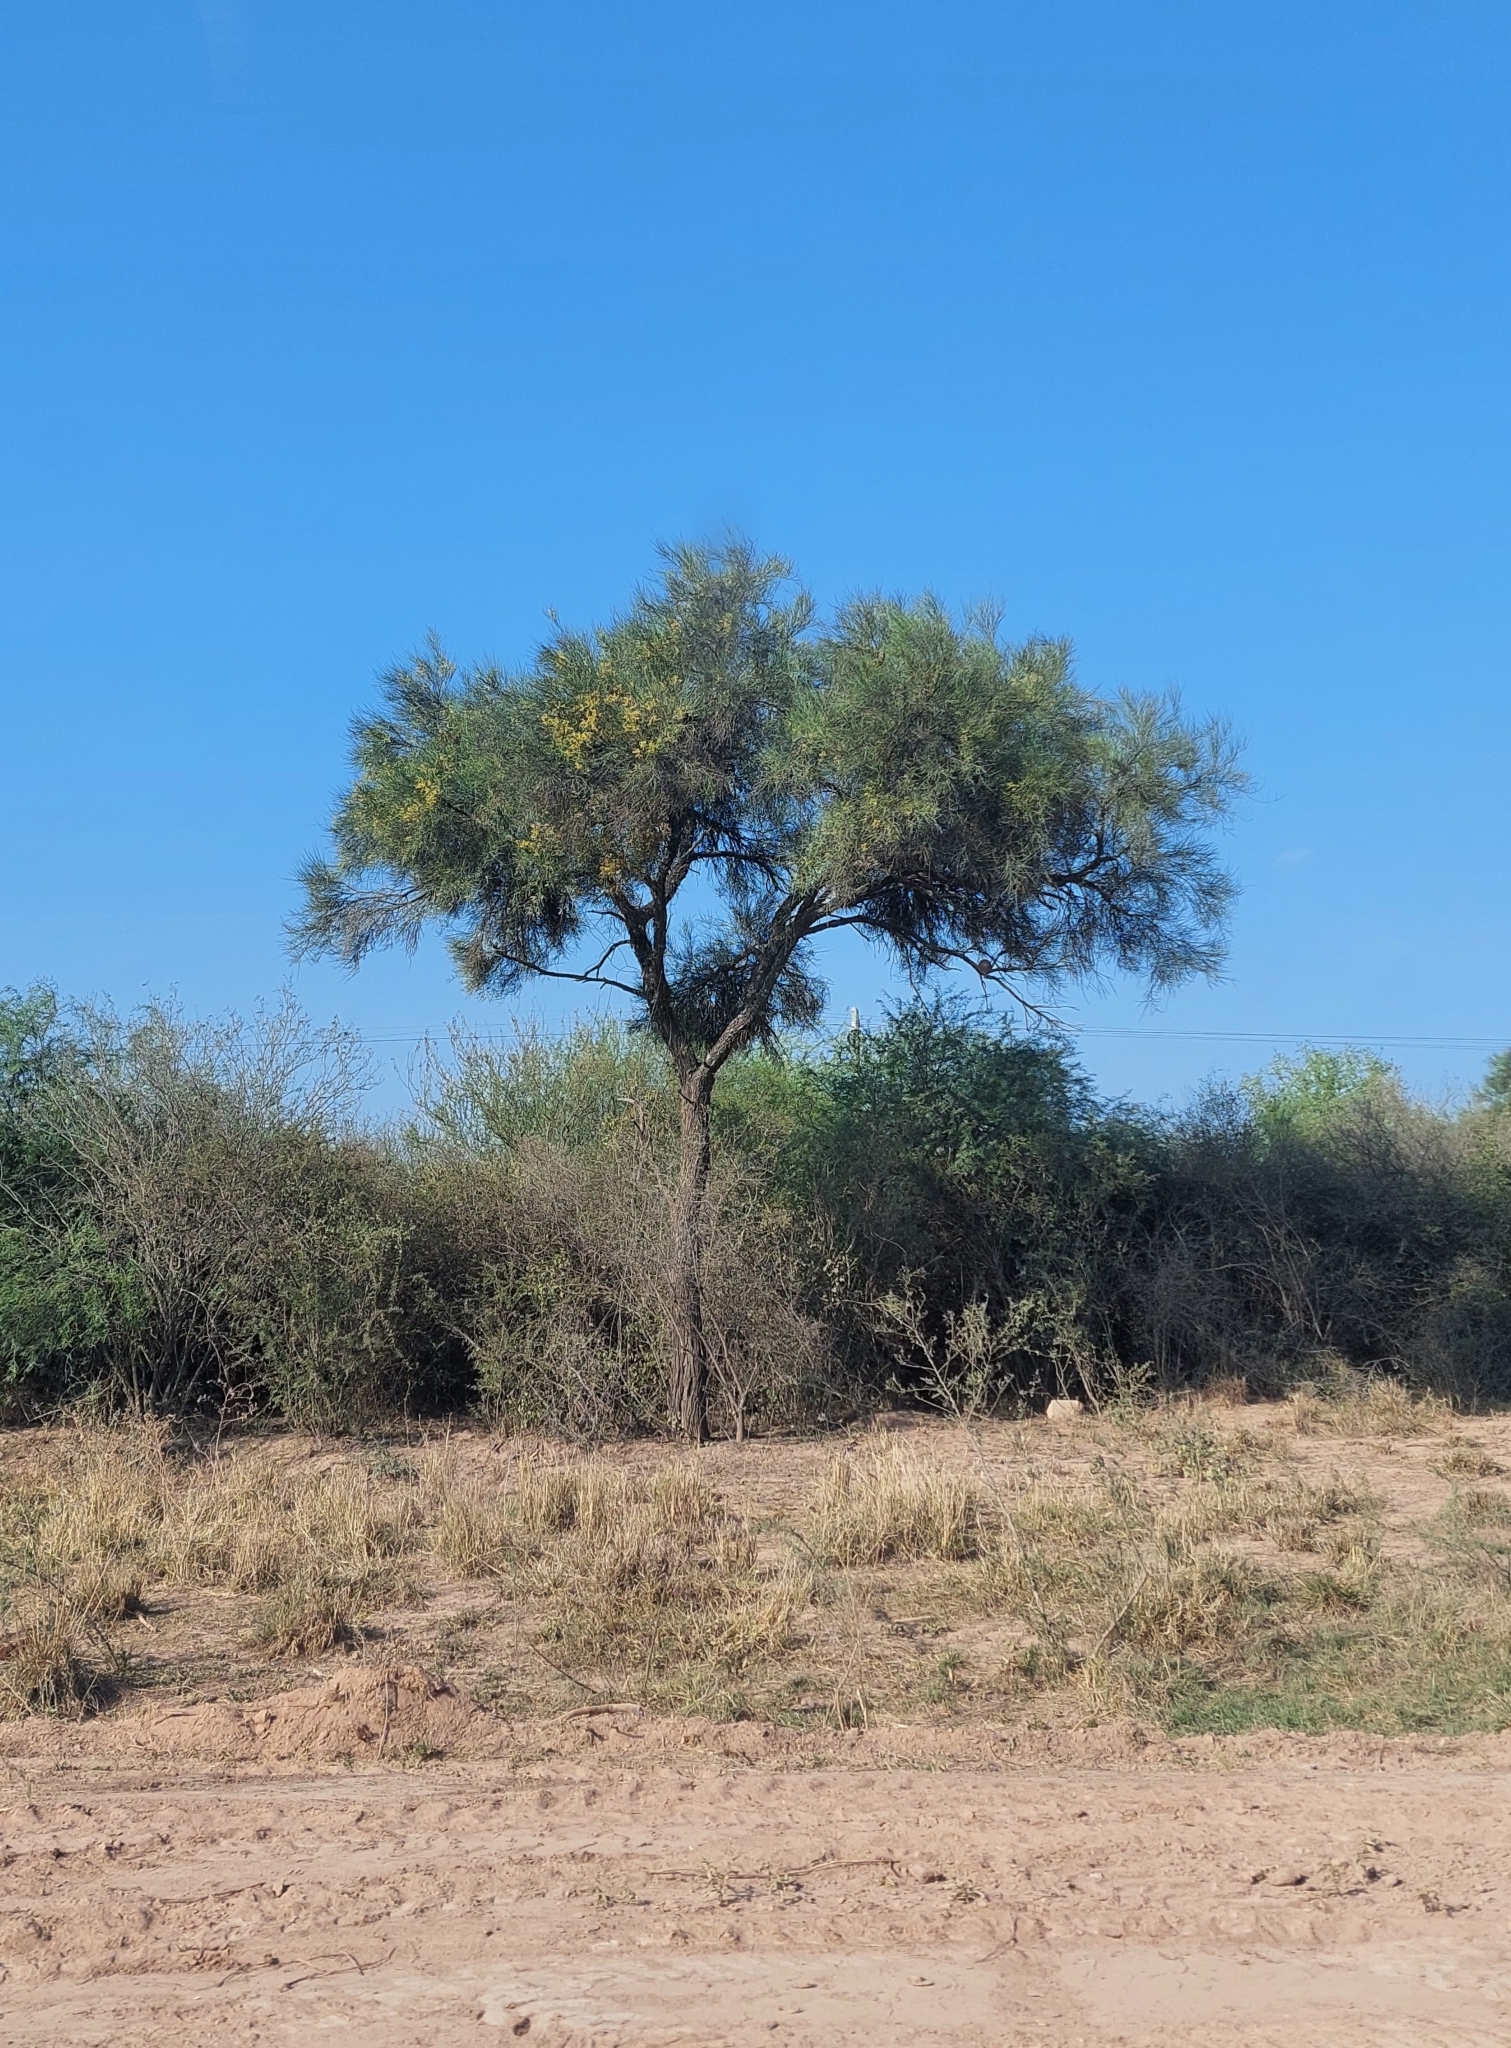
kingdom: Plantae
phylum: Tracheophyta
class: Magnoliopsida
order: Fabales
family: Fabaceae
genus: Prosopis
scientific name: Prosopis kuntzei
